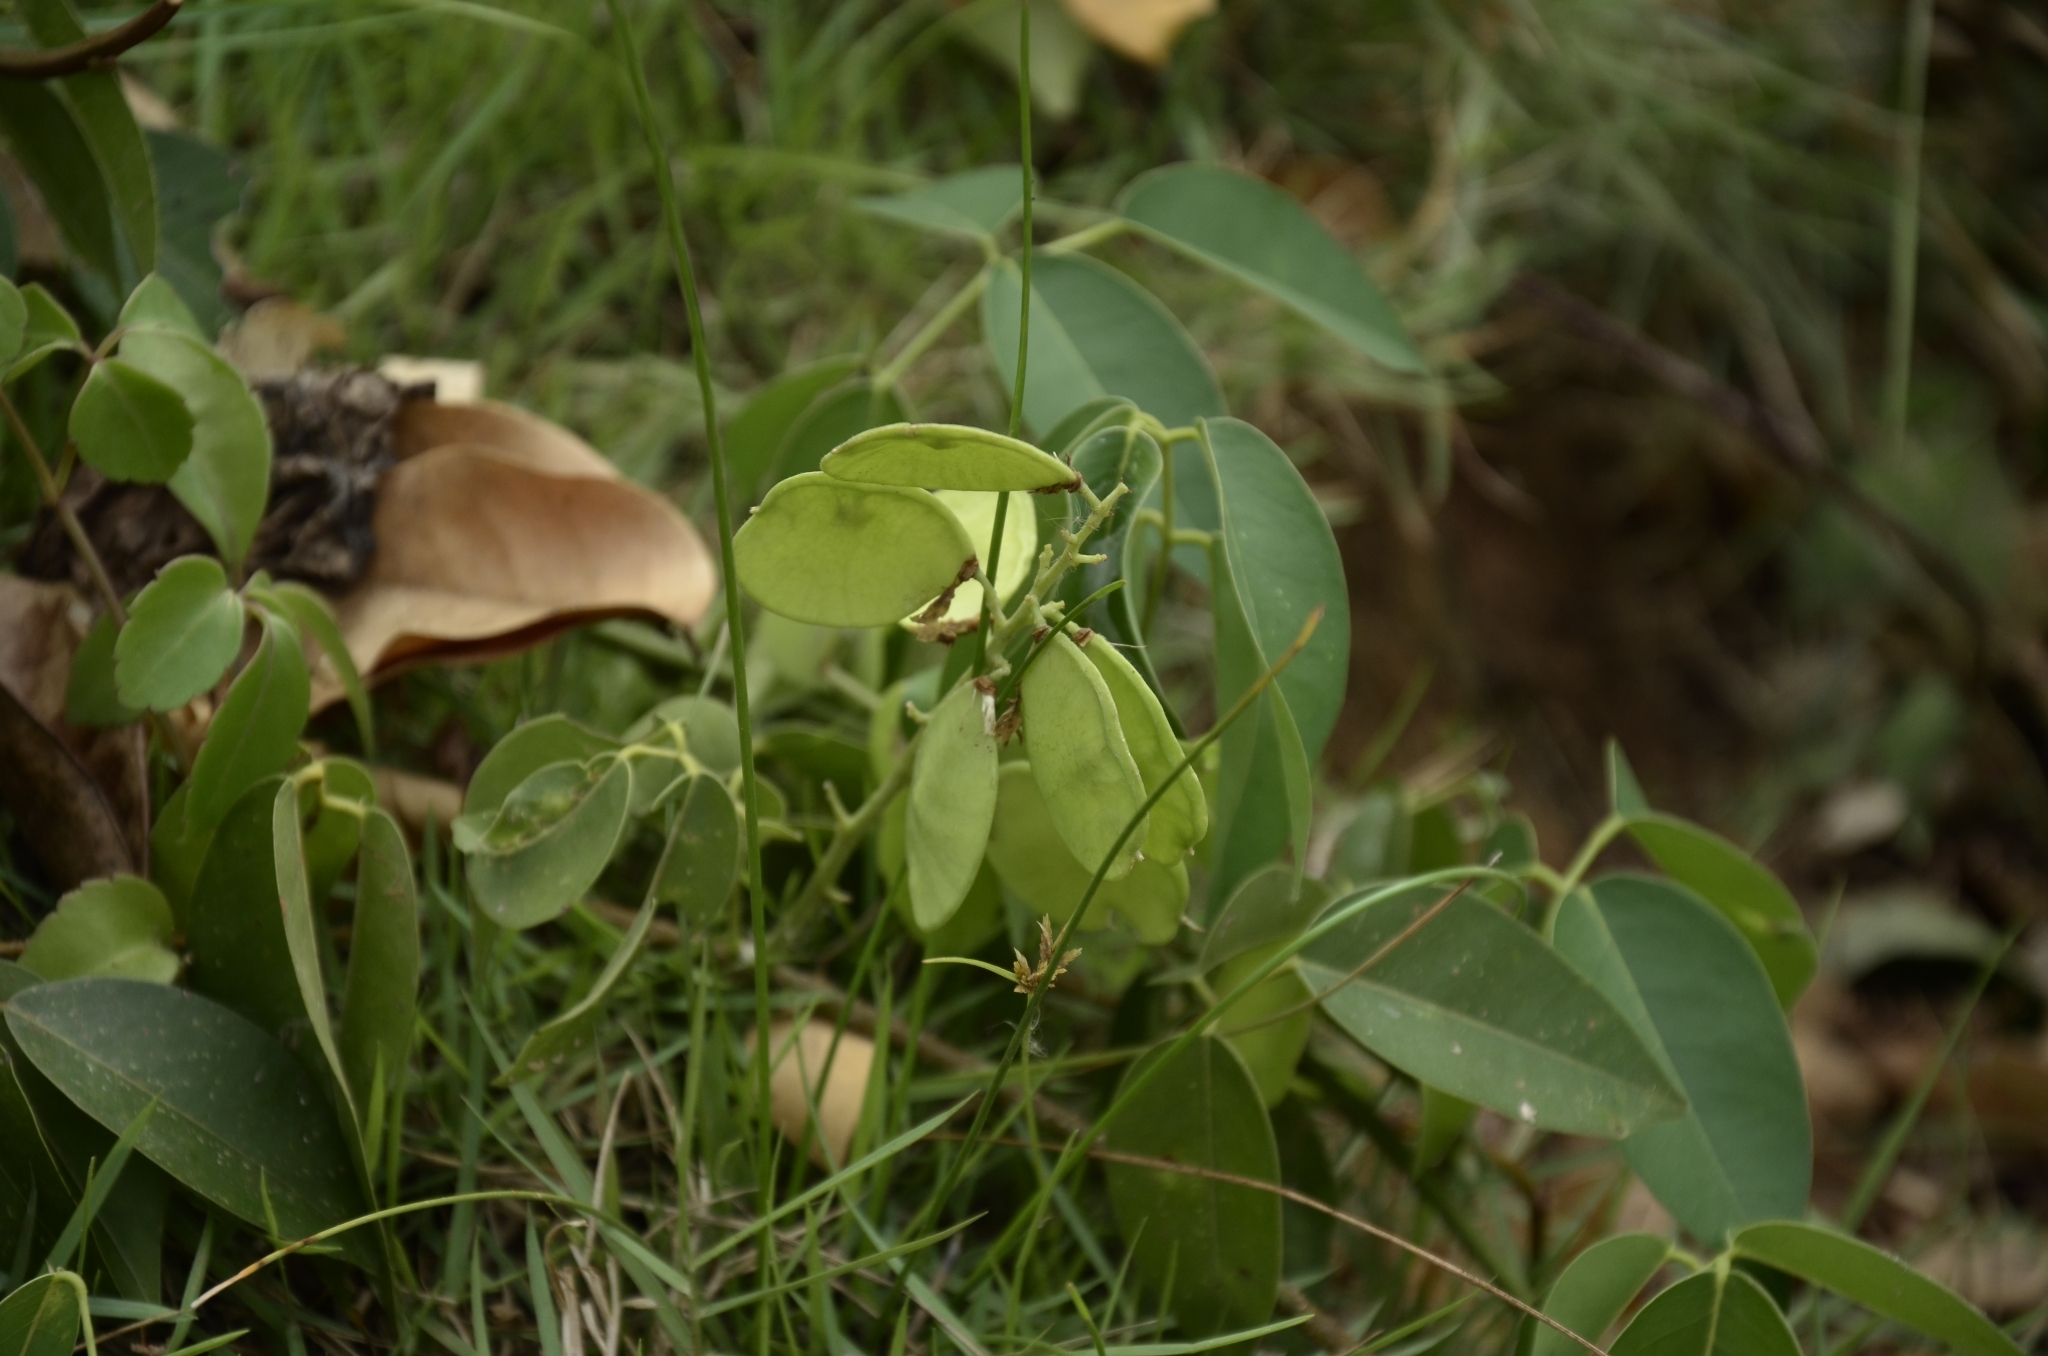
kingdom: Plantae
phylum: Tracheophyta
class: Magnoliopsida
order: Fabales
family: Fabaceae
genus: Derris
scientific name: Derris trifoliata
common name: Three-leaf derris
